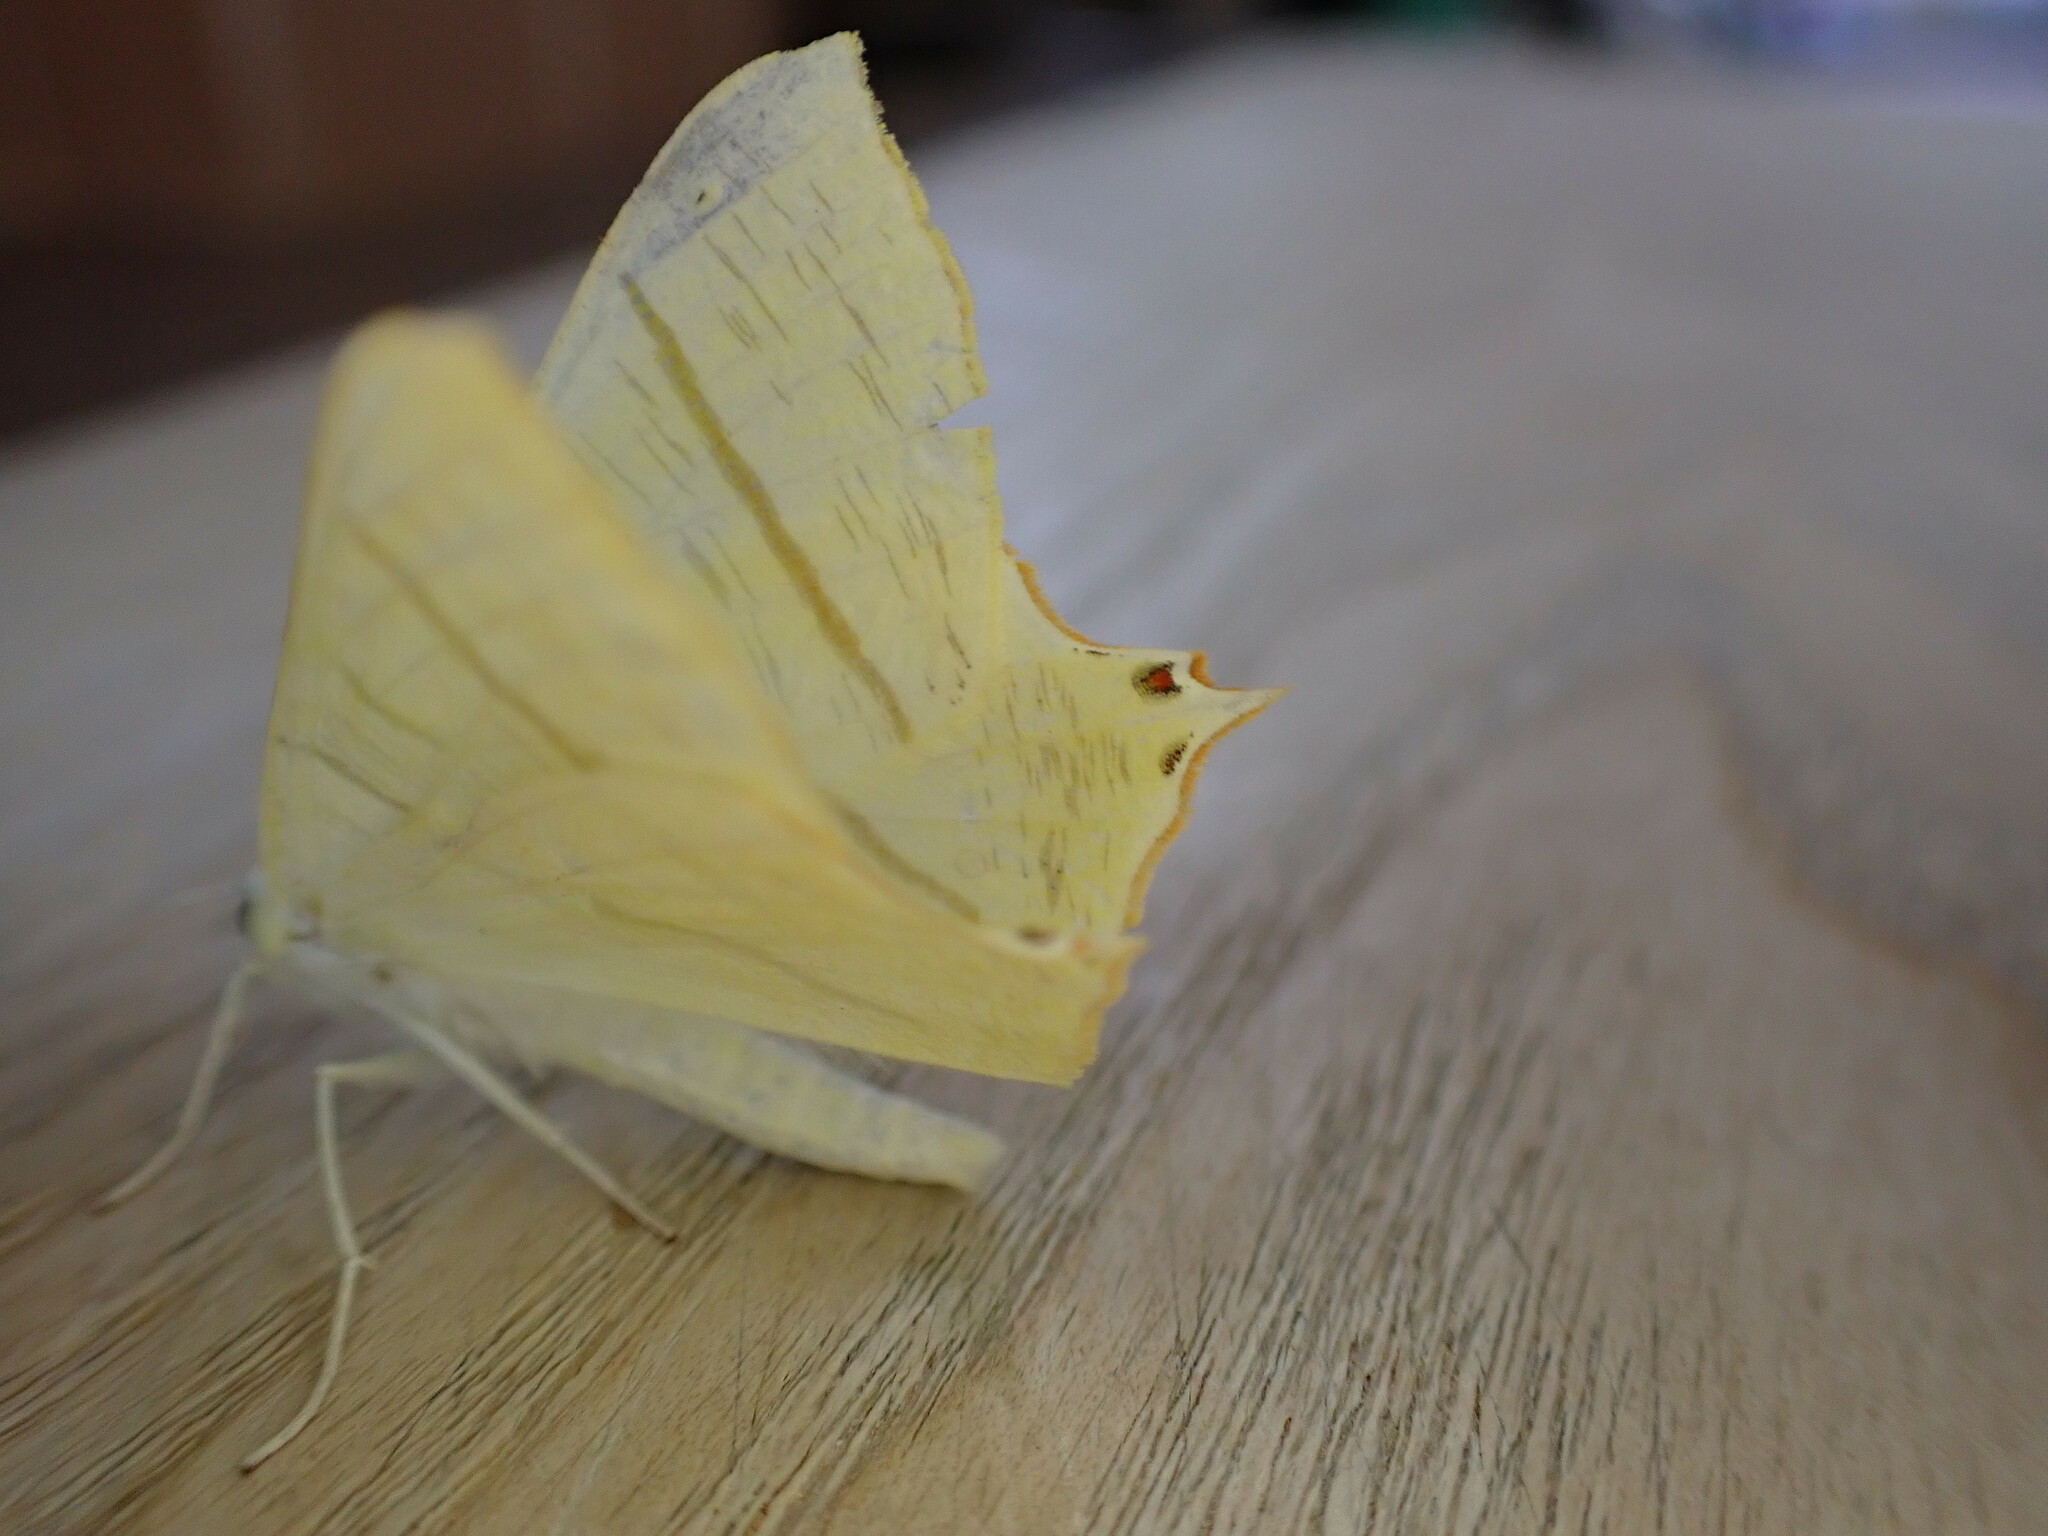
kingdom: Animalia
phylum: Arthropoda
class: Insecta
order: Lepidoptera
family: Geometridae
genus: Ourapteryx
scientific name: Ourapteryx sambucaria
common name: Swallow-tailed moth
